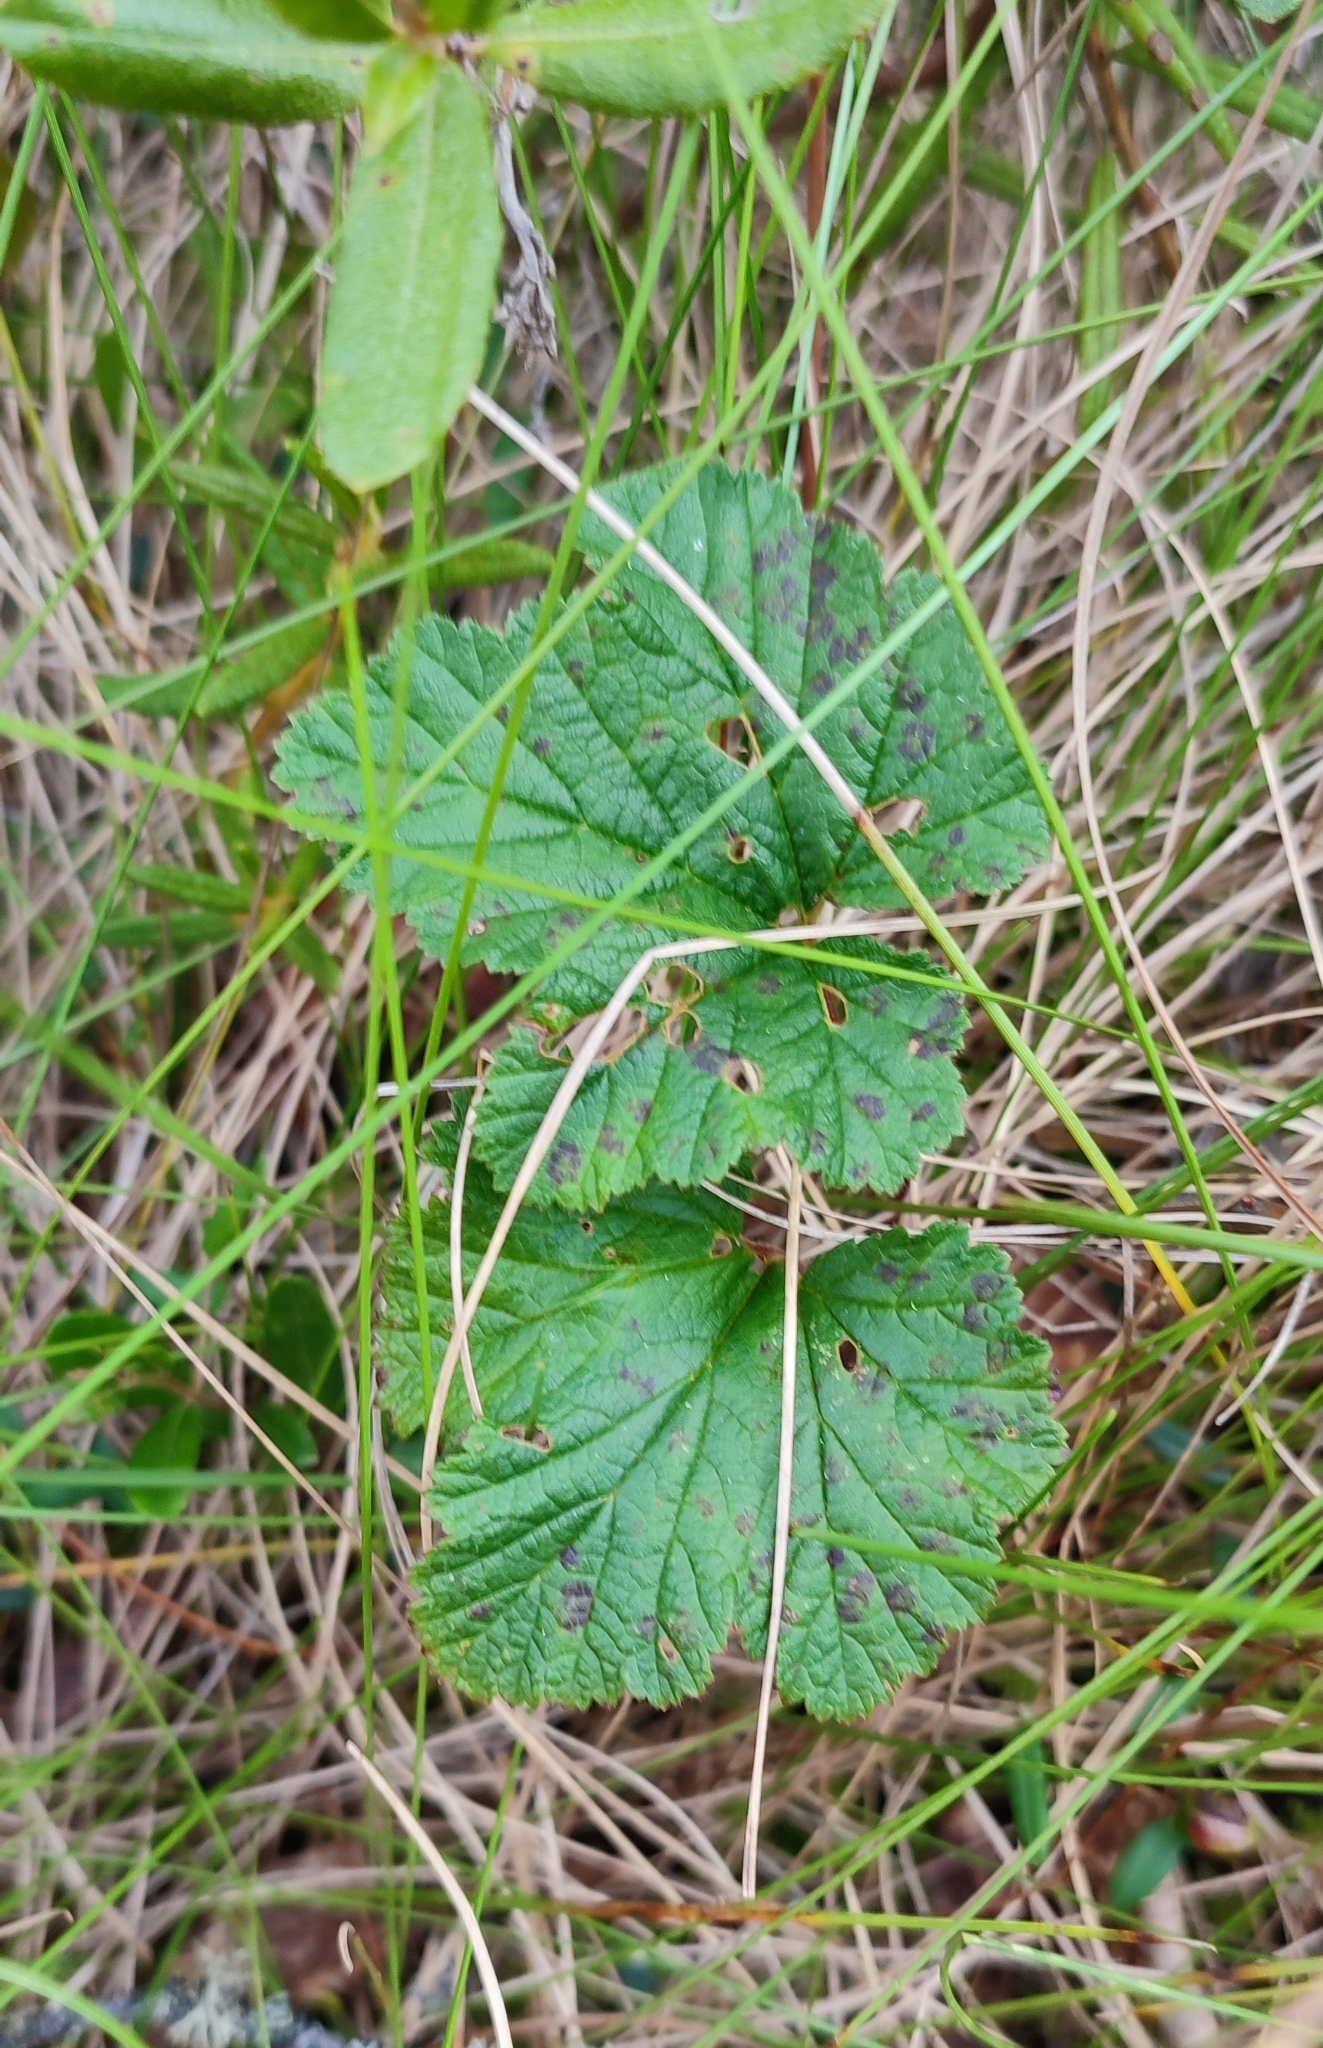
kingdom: Plantae
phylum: Tracheophyta
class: Magnoliopsida
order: Rosales
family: Rosaceae
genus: Rubus
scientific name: Rubus chamaemorus
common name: Cloudberry
